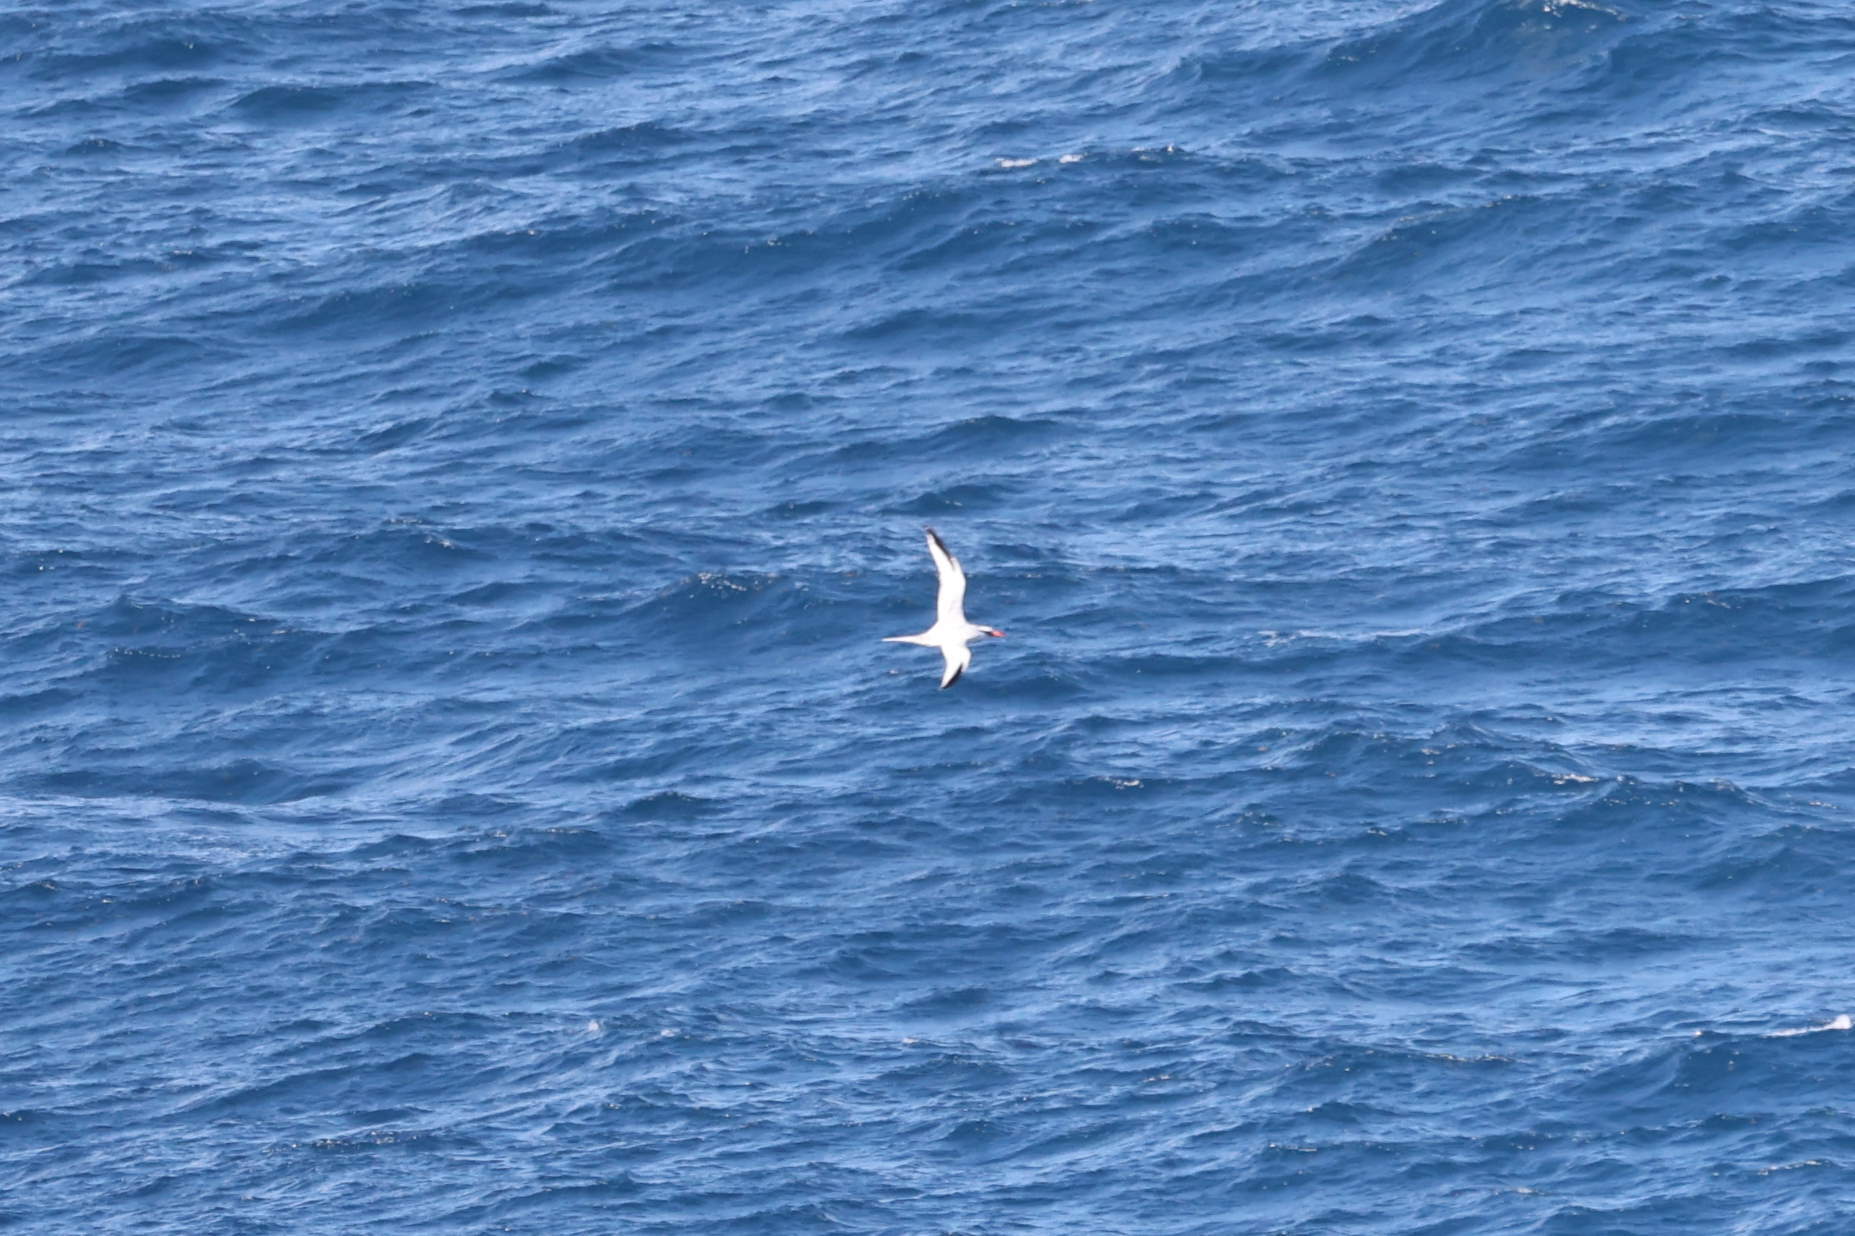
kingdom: Animalia
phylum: Chordata
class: Aves
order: Phaethontiformes
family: Phaethontidae
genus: Phaethon
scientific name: Phaethon aethereus
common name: Red-billed tropicbird
